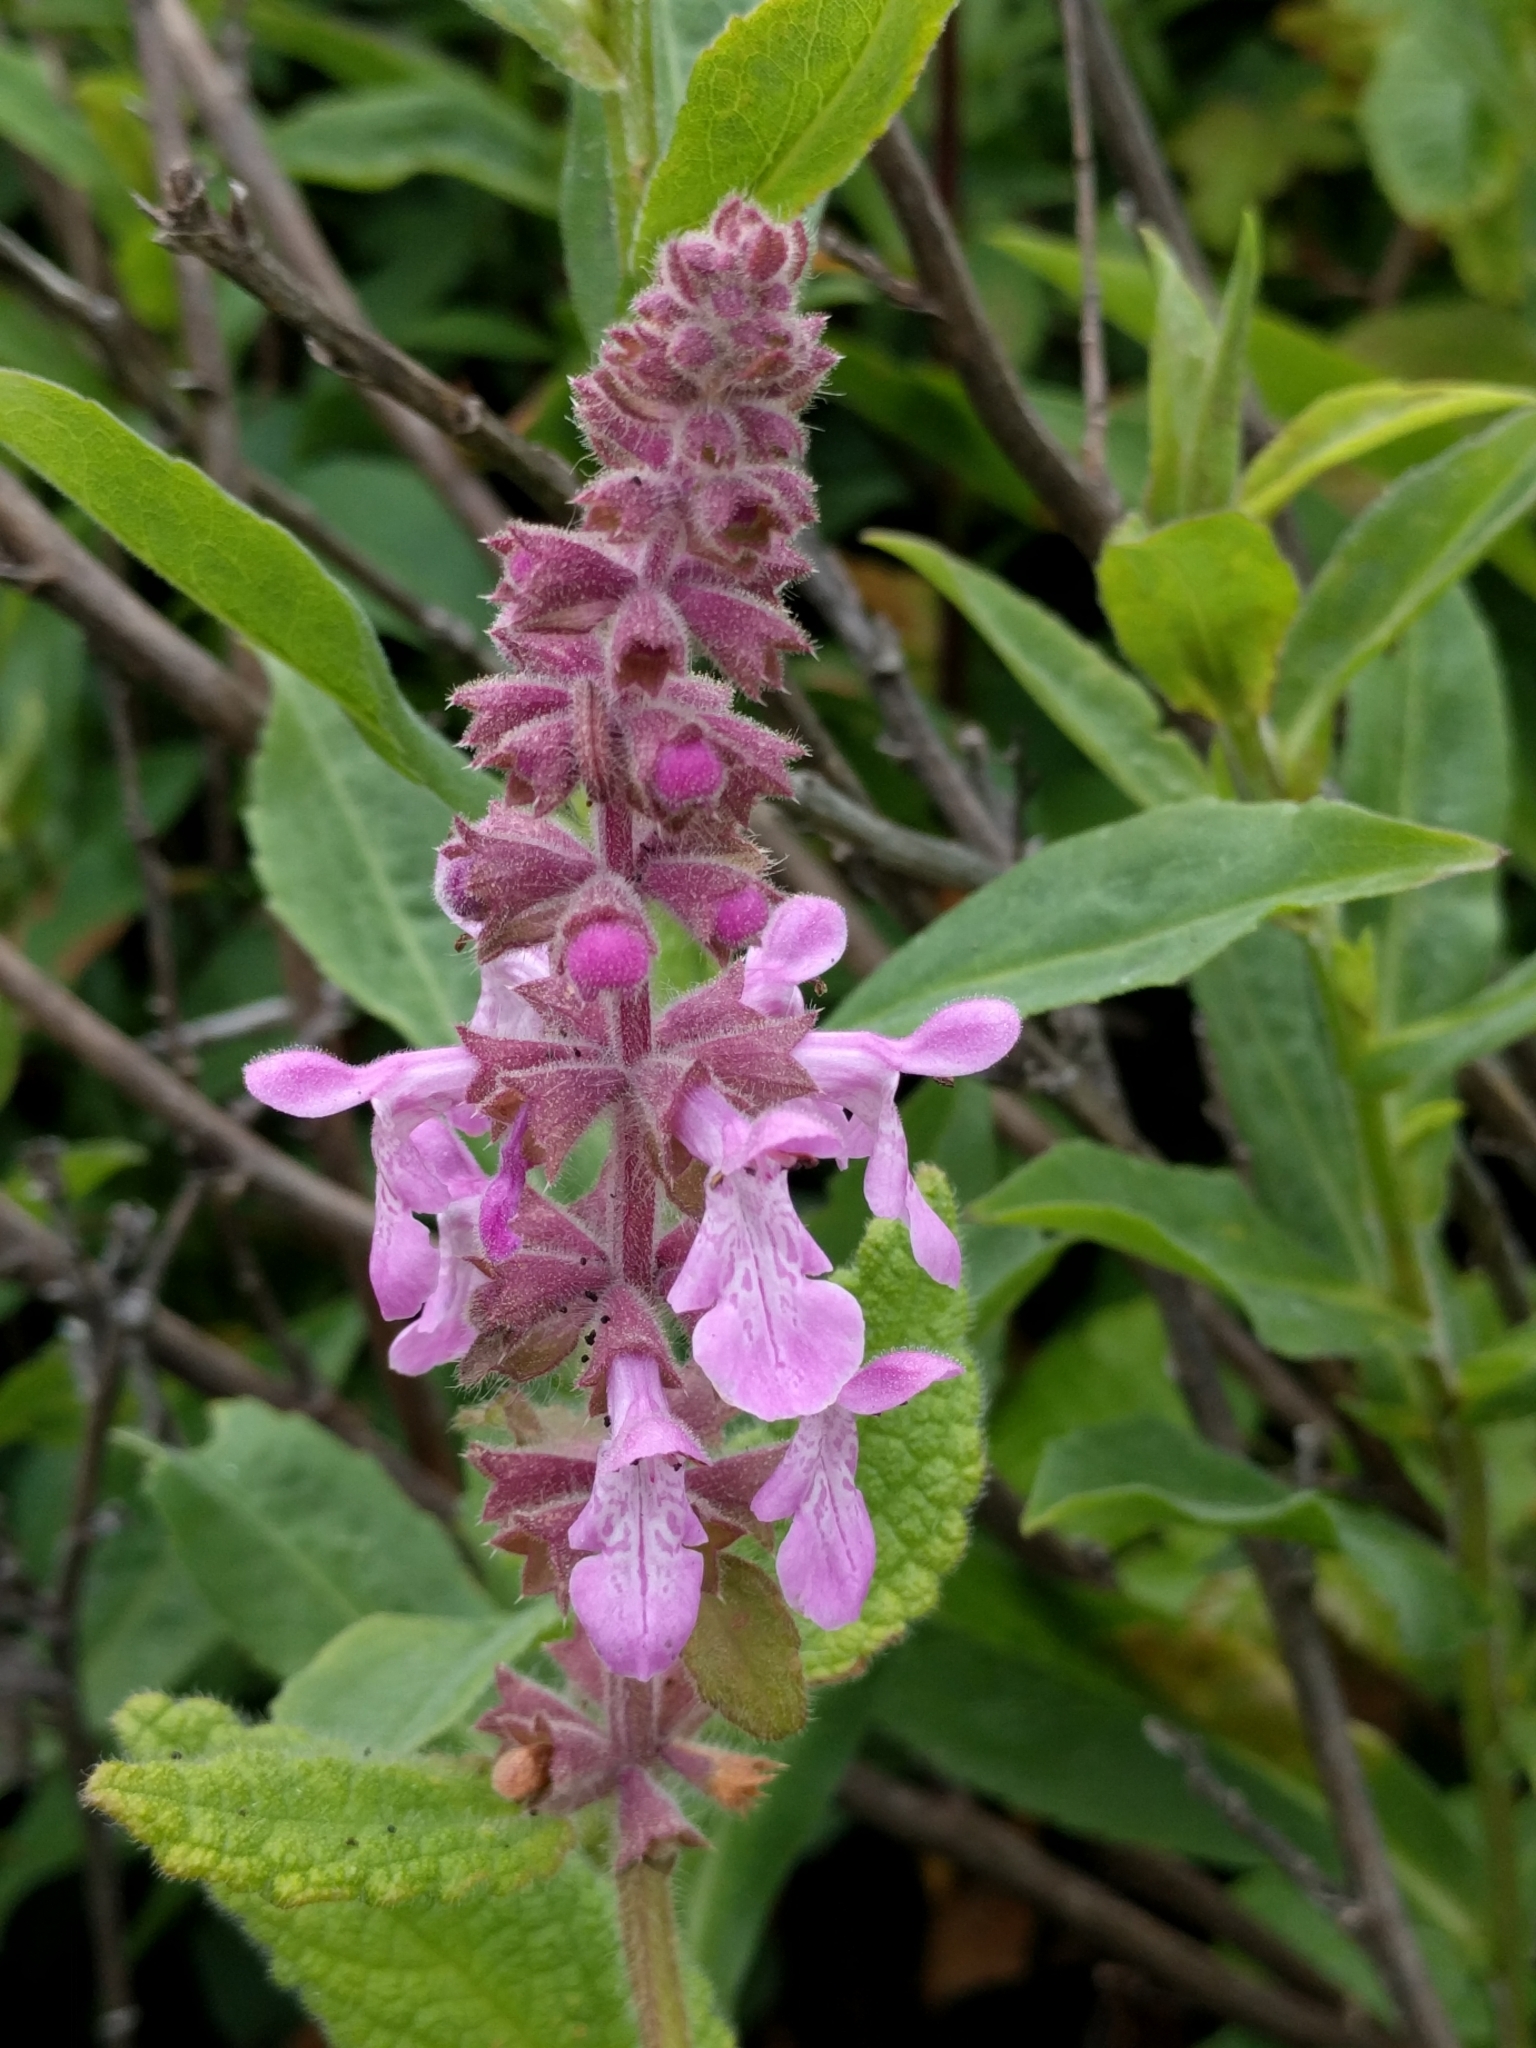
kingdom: Plantae
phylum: Tracheophyta
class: Magnoliopsida
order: Lamiales
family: Lamiaceae
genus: Stachys
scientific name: Stachys bullata
